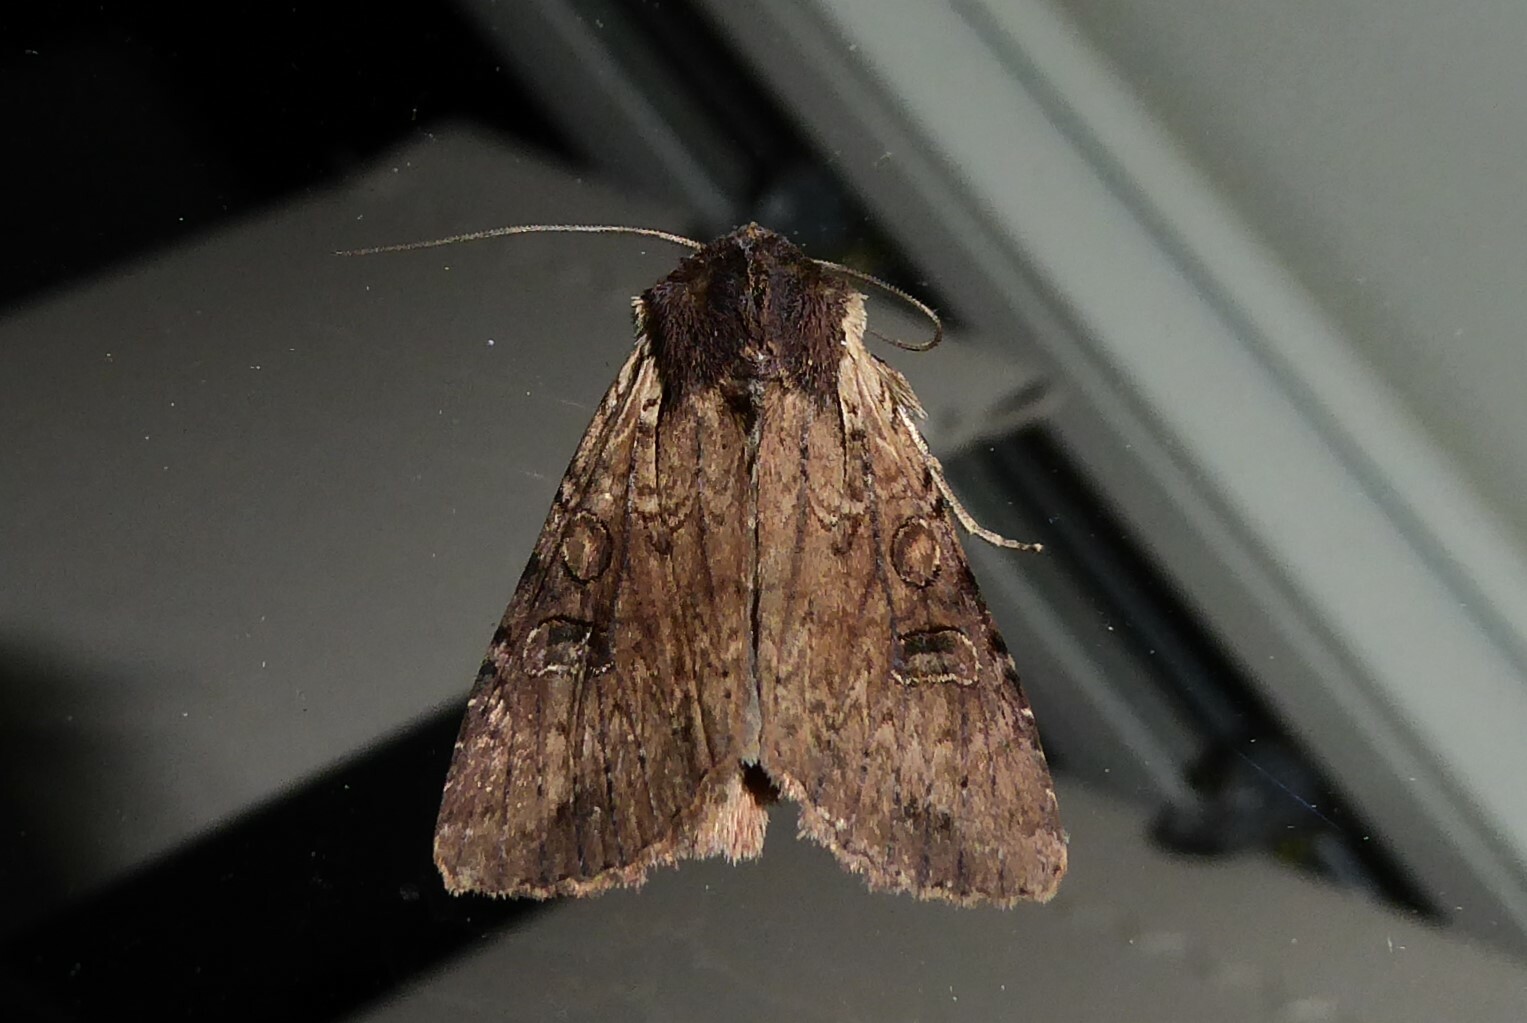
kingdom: Animalia
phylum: Arthropoda
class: Insecta
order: Lepidoptera
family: Noctuidae
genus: Ichneutica
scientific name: Ichneutica omoplaca
